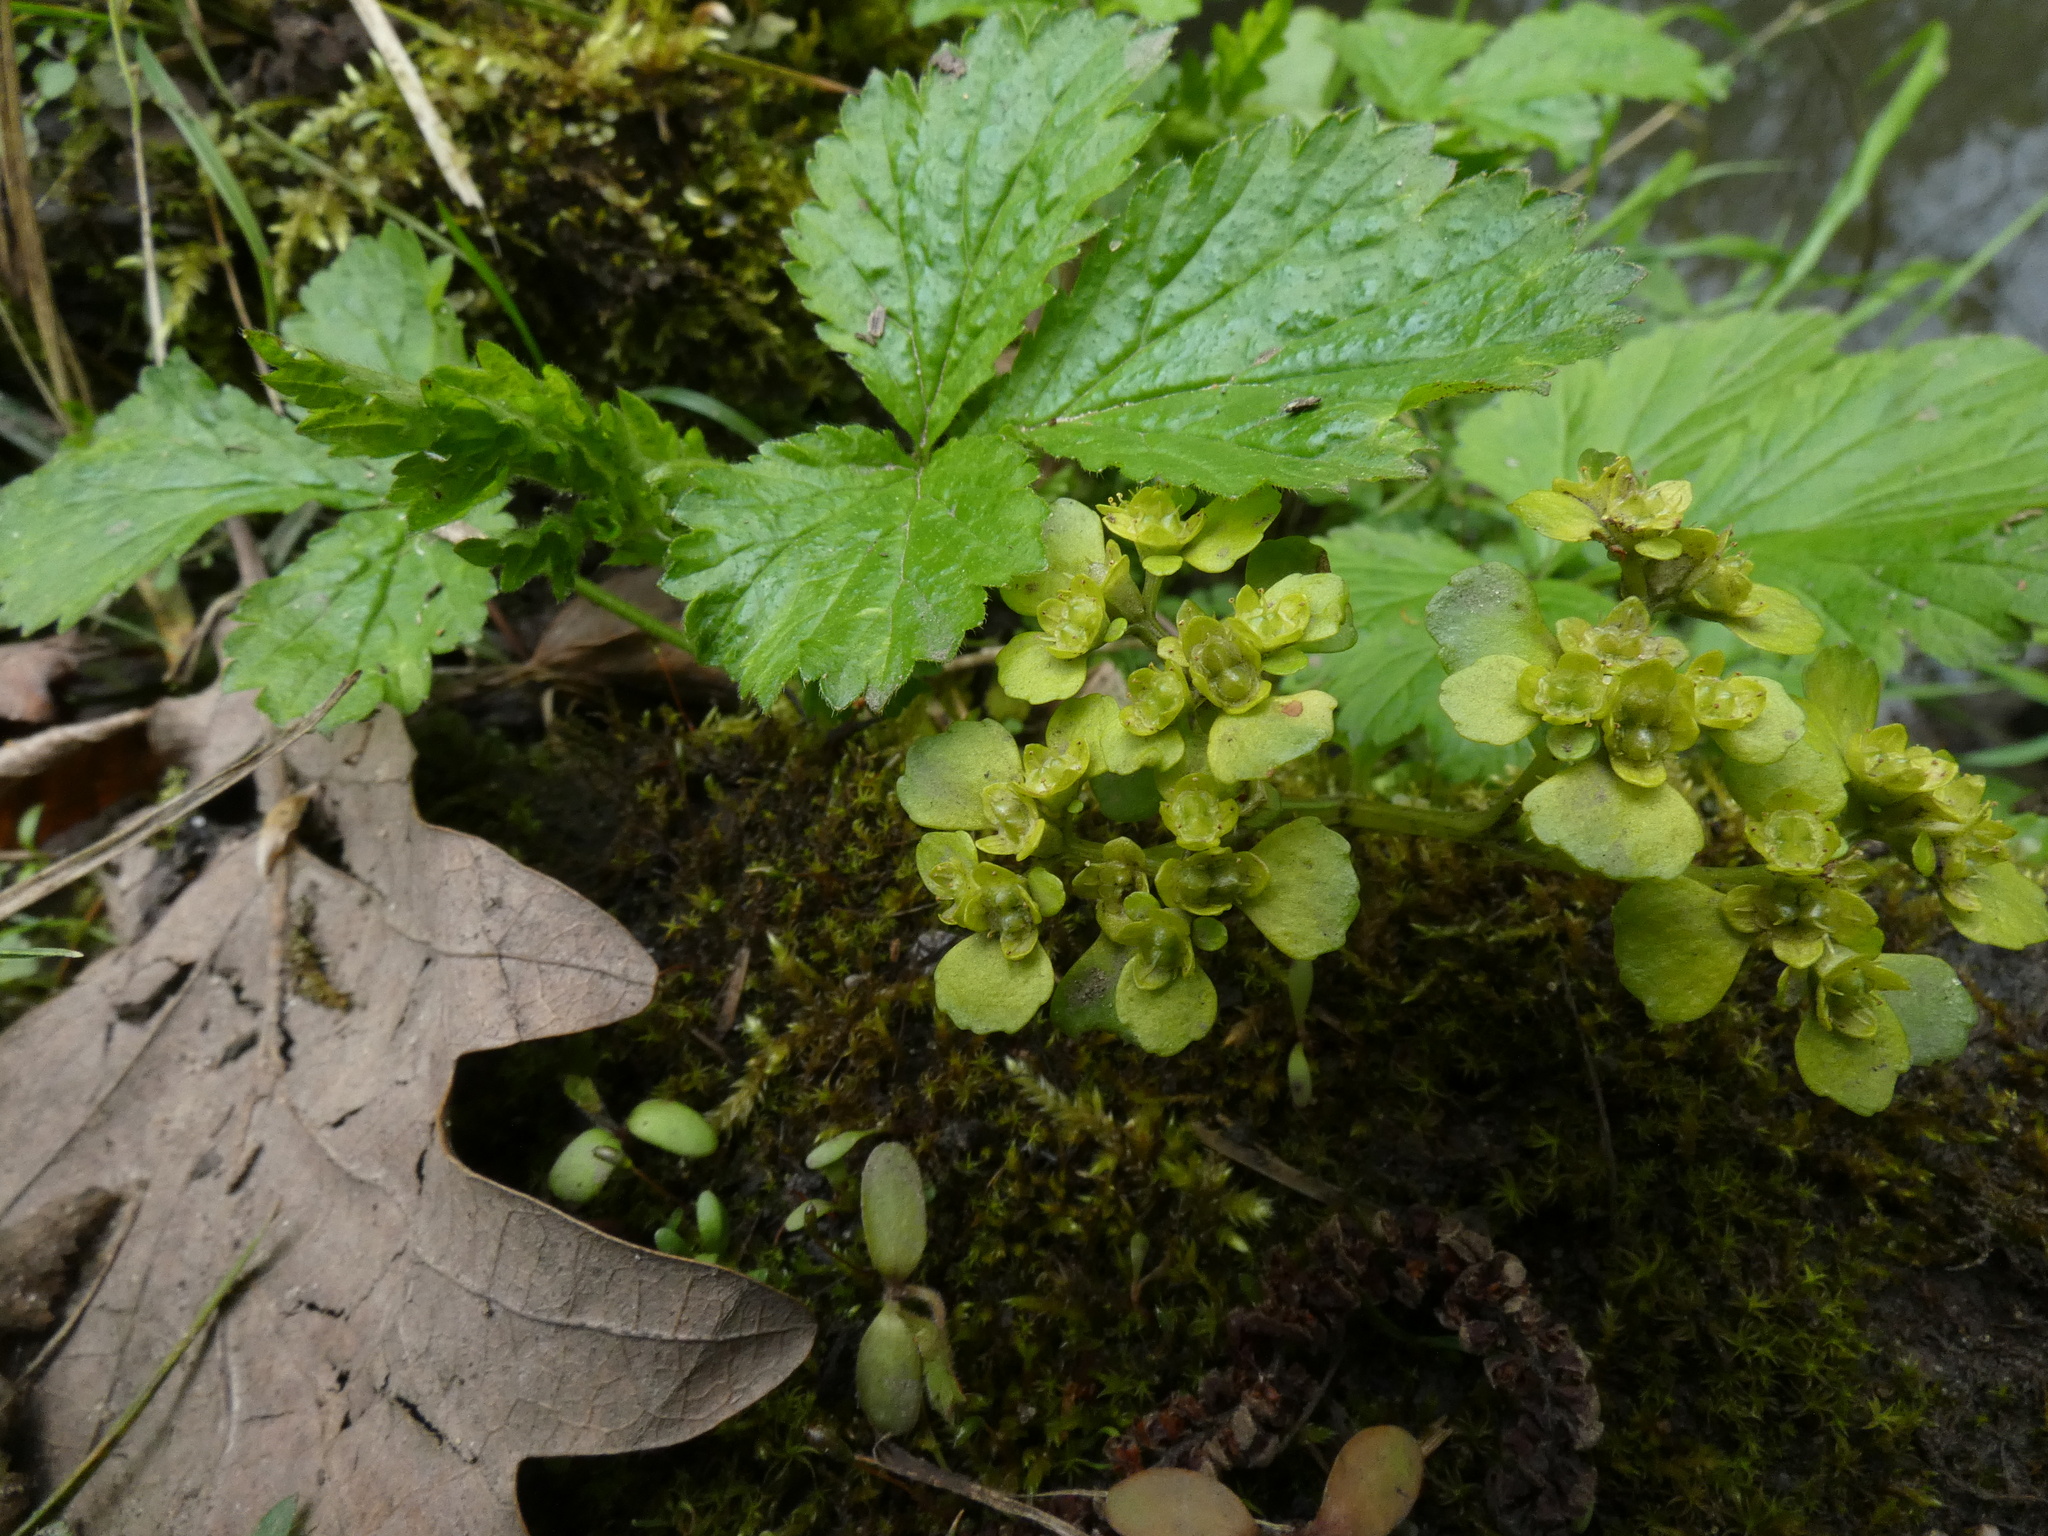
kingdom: Plantae
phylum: Tracheophyta
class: Magnoliopsida
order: Saxifragales
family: Saxifragaceae
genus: Chrysosplenium
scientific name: Chrysosplenium oppositifolium
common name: Opposite-leaved golden-saxifrage
